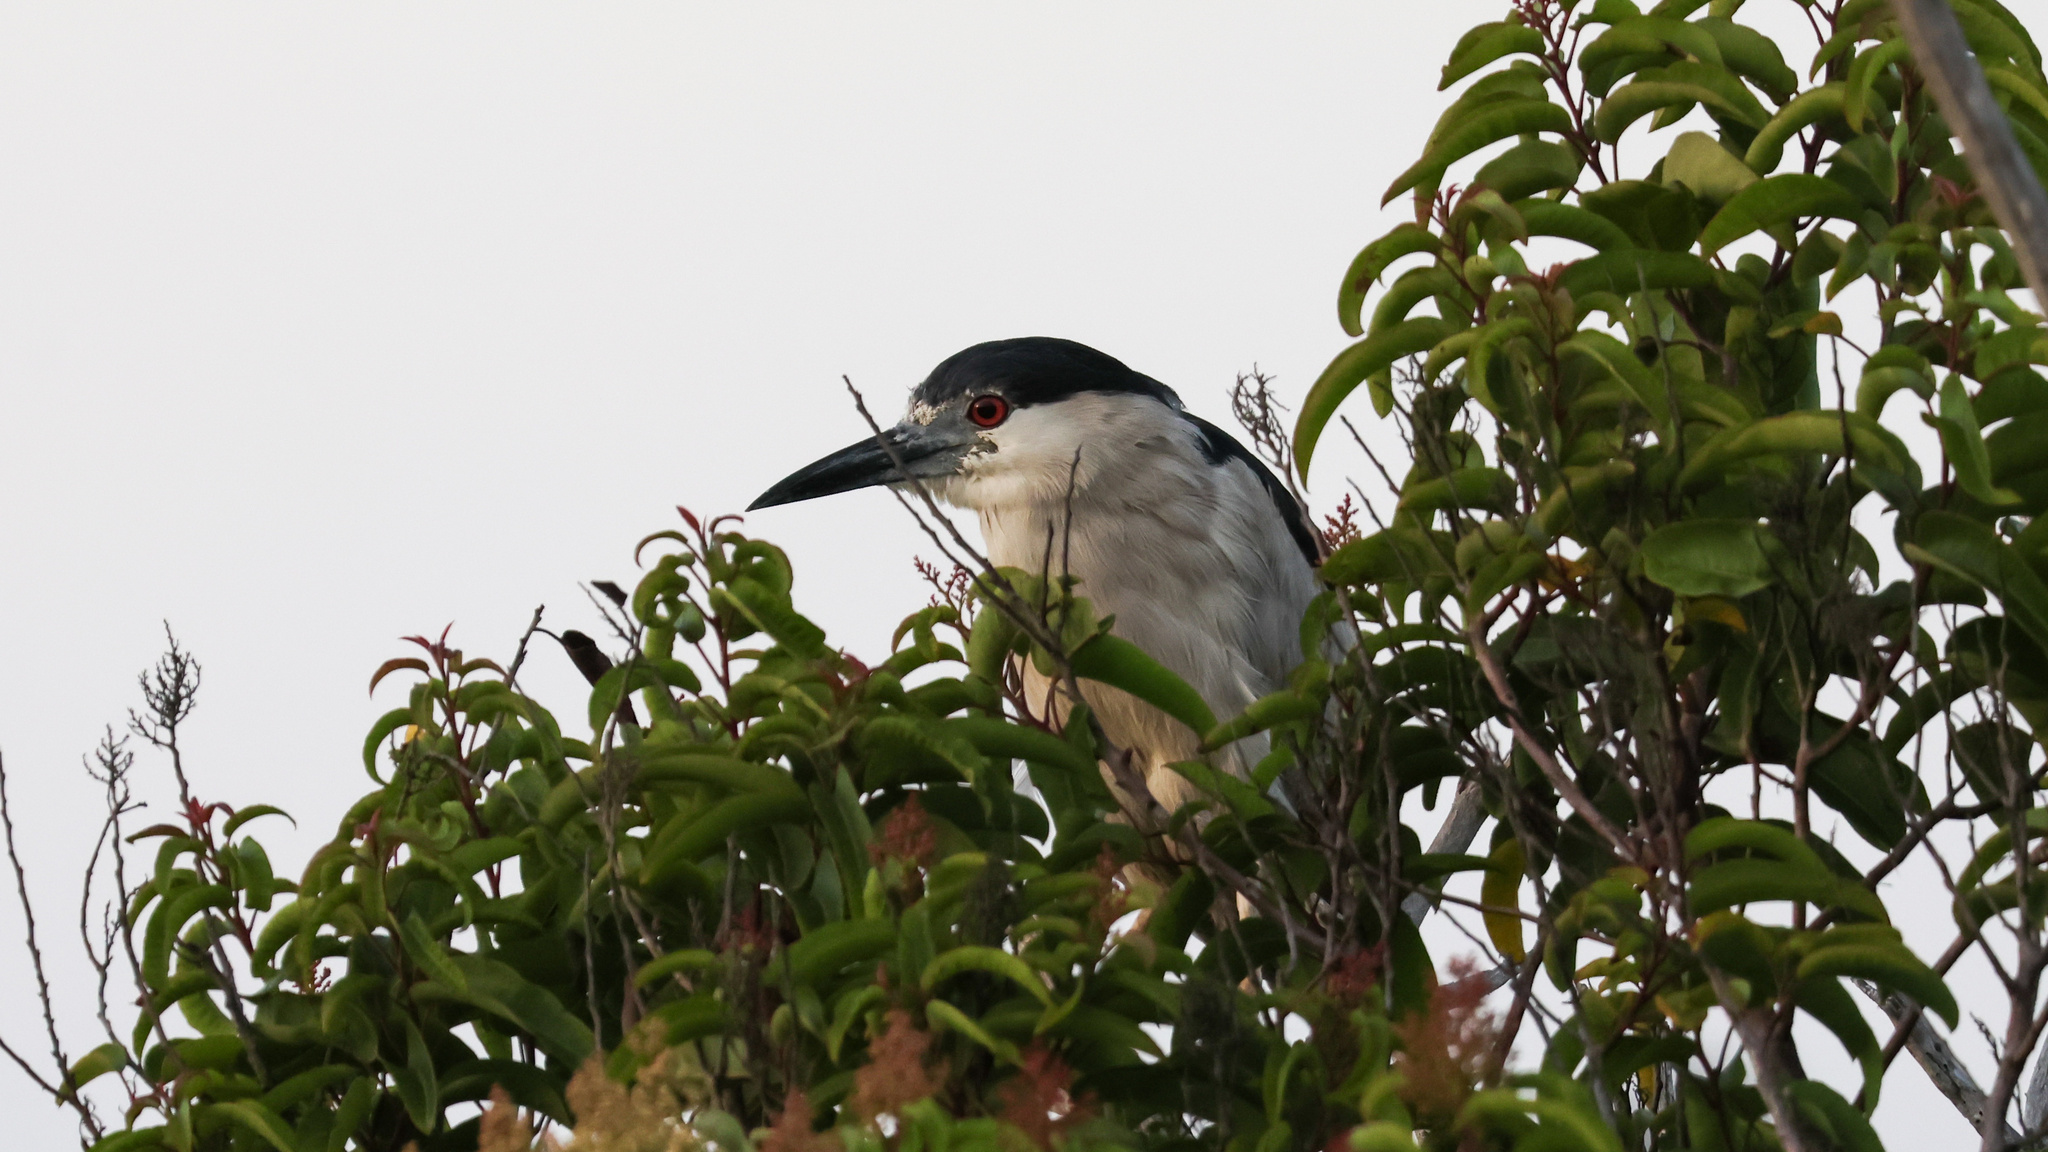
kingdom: Animalia
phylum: Chordata
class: Aves
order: Pelecaniformes
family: Ardeidae
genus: Nycticorax
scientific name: Nycticorax nycticorax
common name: Black-crowned night heron
